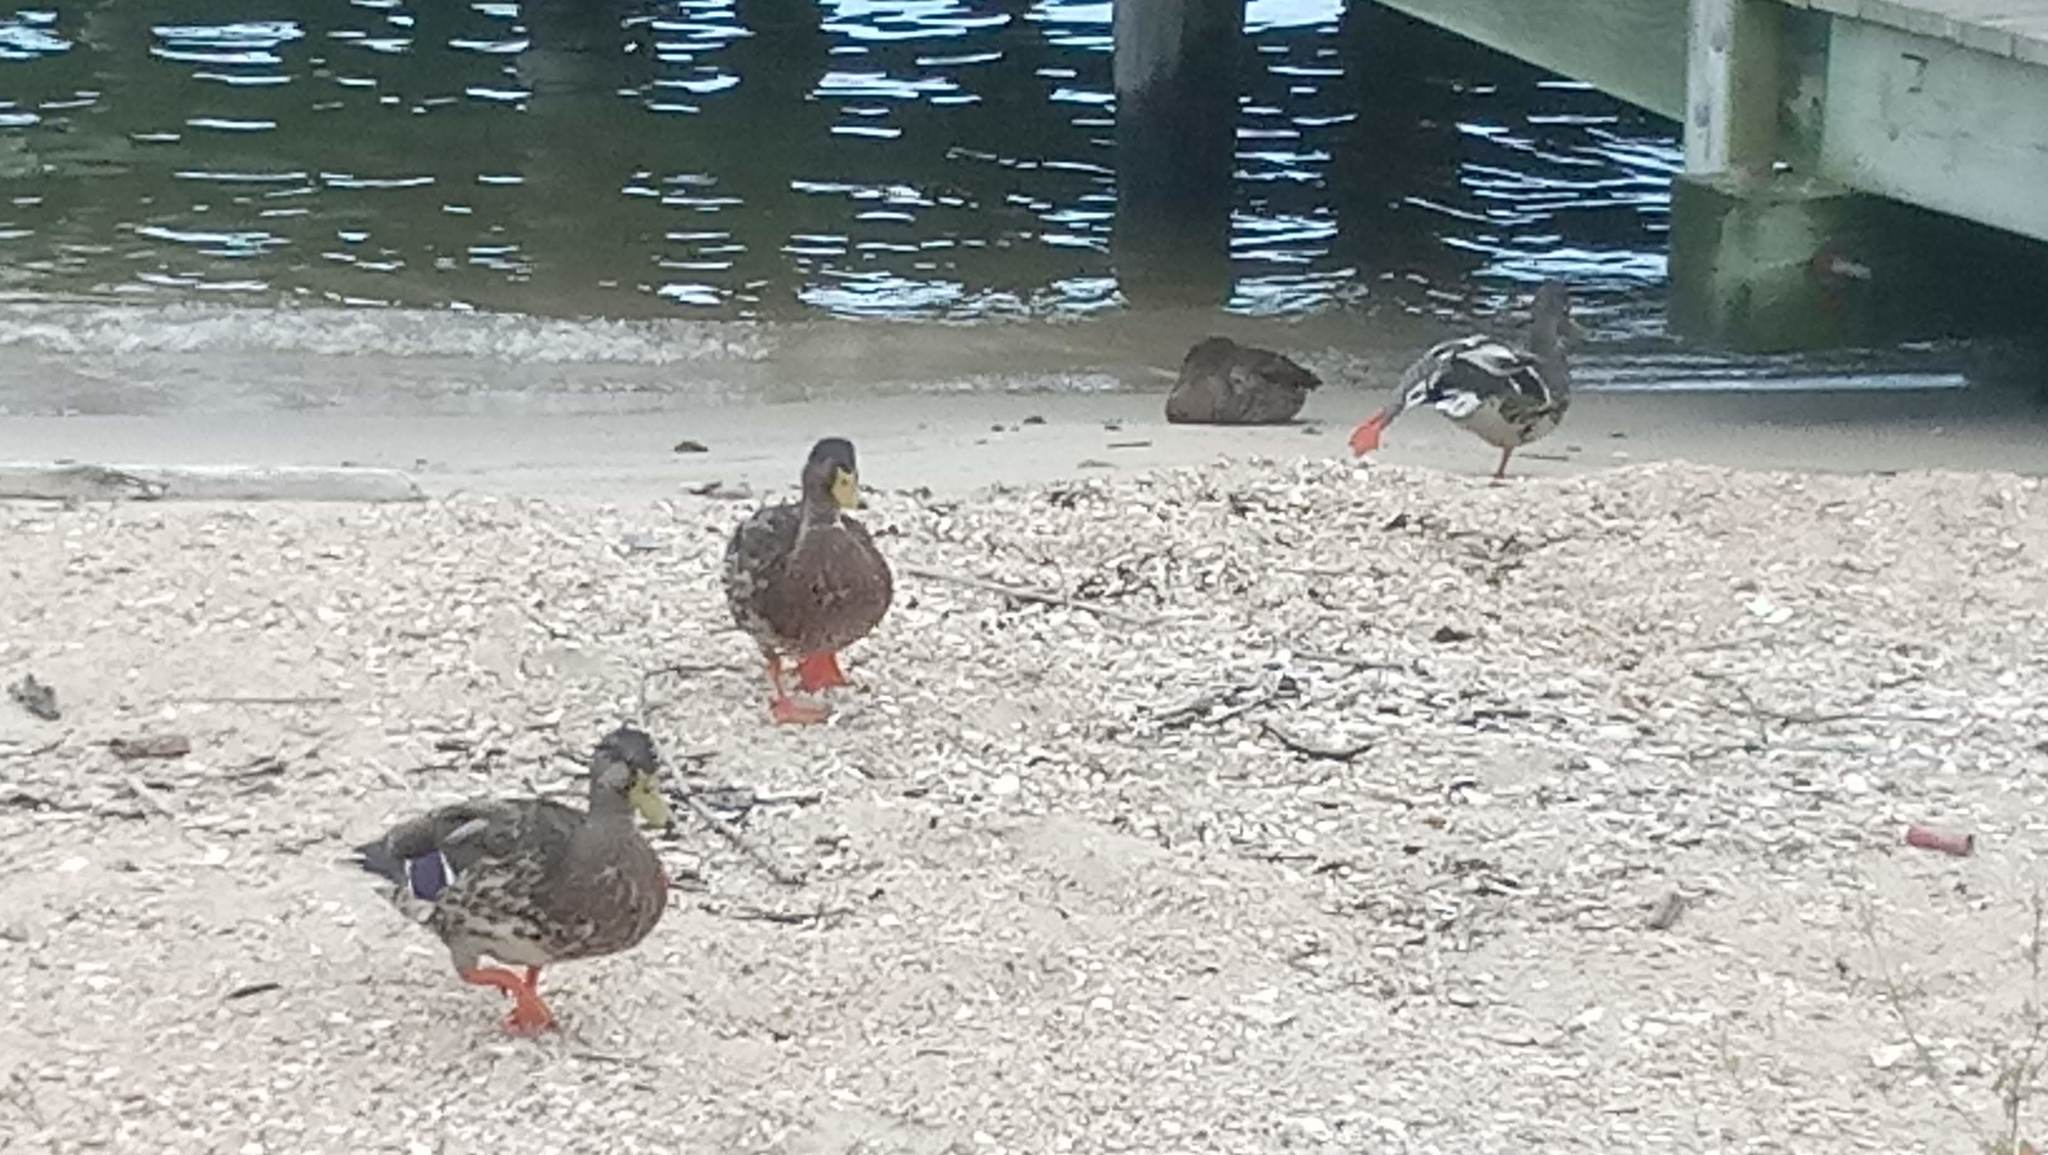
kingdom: Animalia
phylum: Chordata
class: Aves
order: Anseriformes
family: Anatidae
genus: Anas
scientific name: Anas platyrhynchos
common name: Mallard
